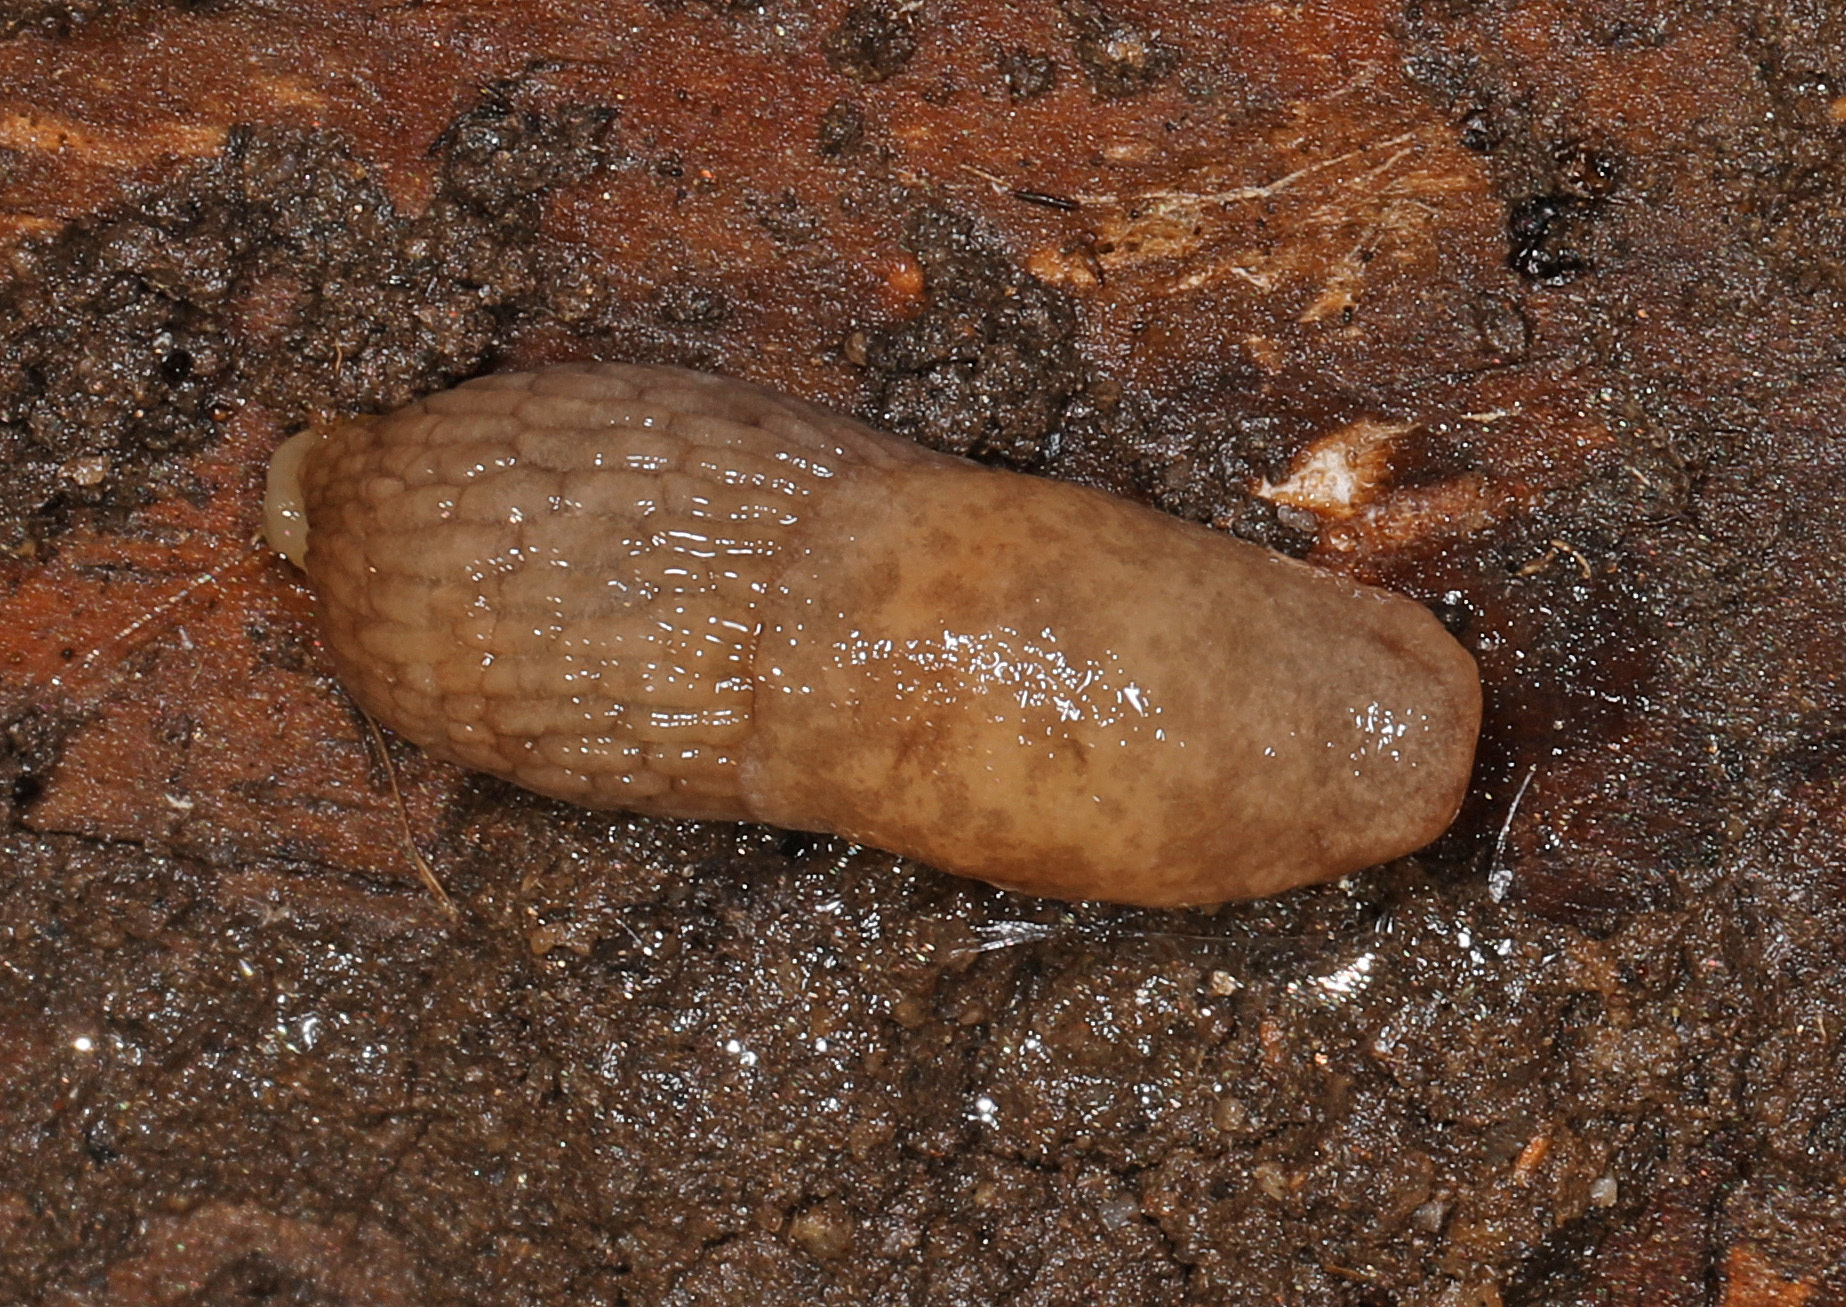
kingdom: Animalia
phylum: Mollusca
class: Gastropoda
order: Stylommatophora
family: Agriolimacidae
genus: Deroceras
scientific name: Deroceras reticulatum
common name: Gray field slug
